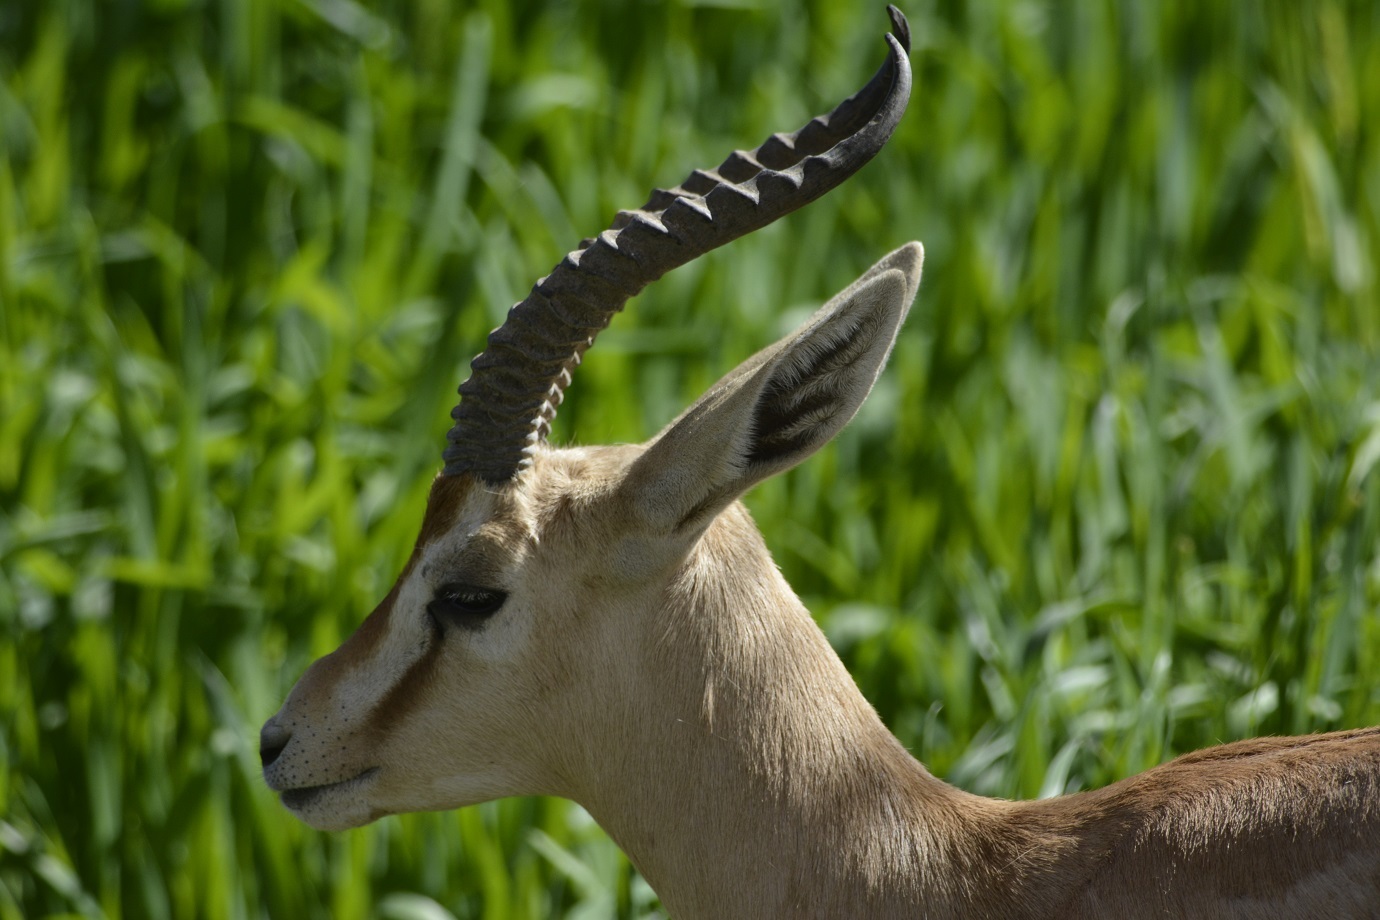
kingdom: Animalia
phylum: Chordata
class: Mammalia
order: Artiodactyla
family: Bovidae
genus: Gazella
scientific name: Gazella dorcas
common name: Dorcas gazelle
